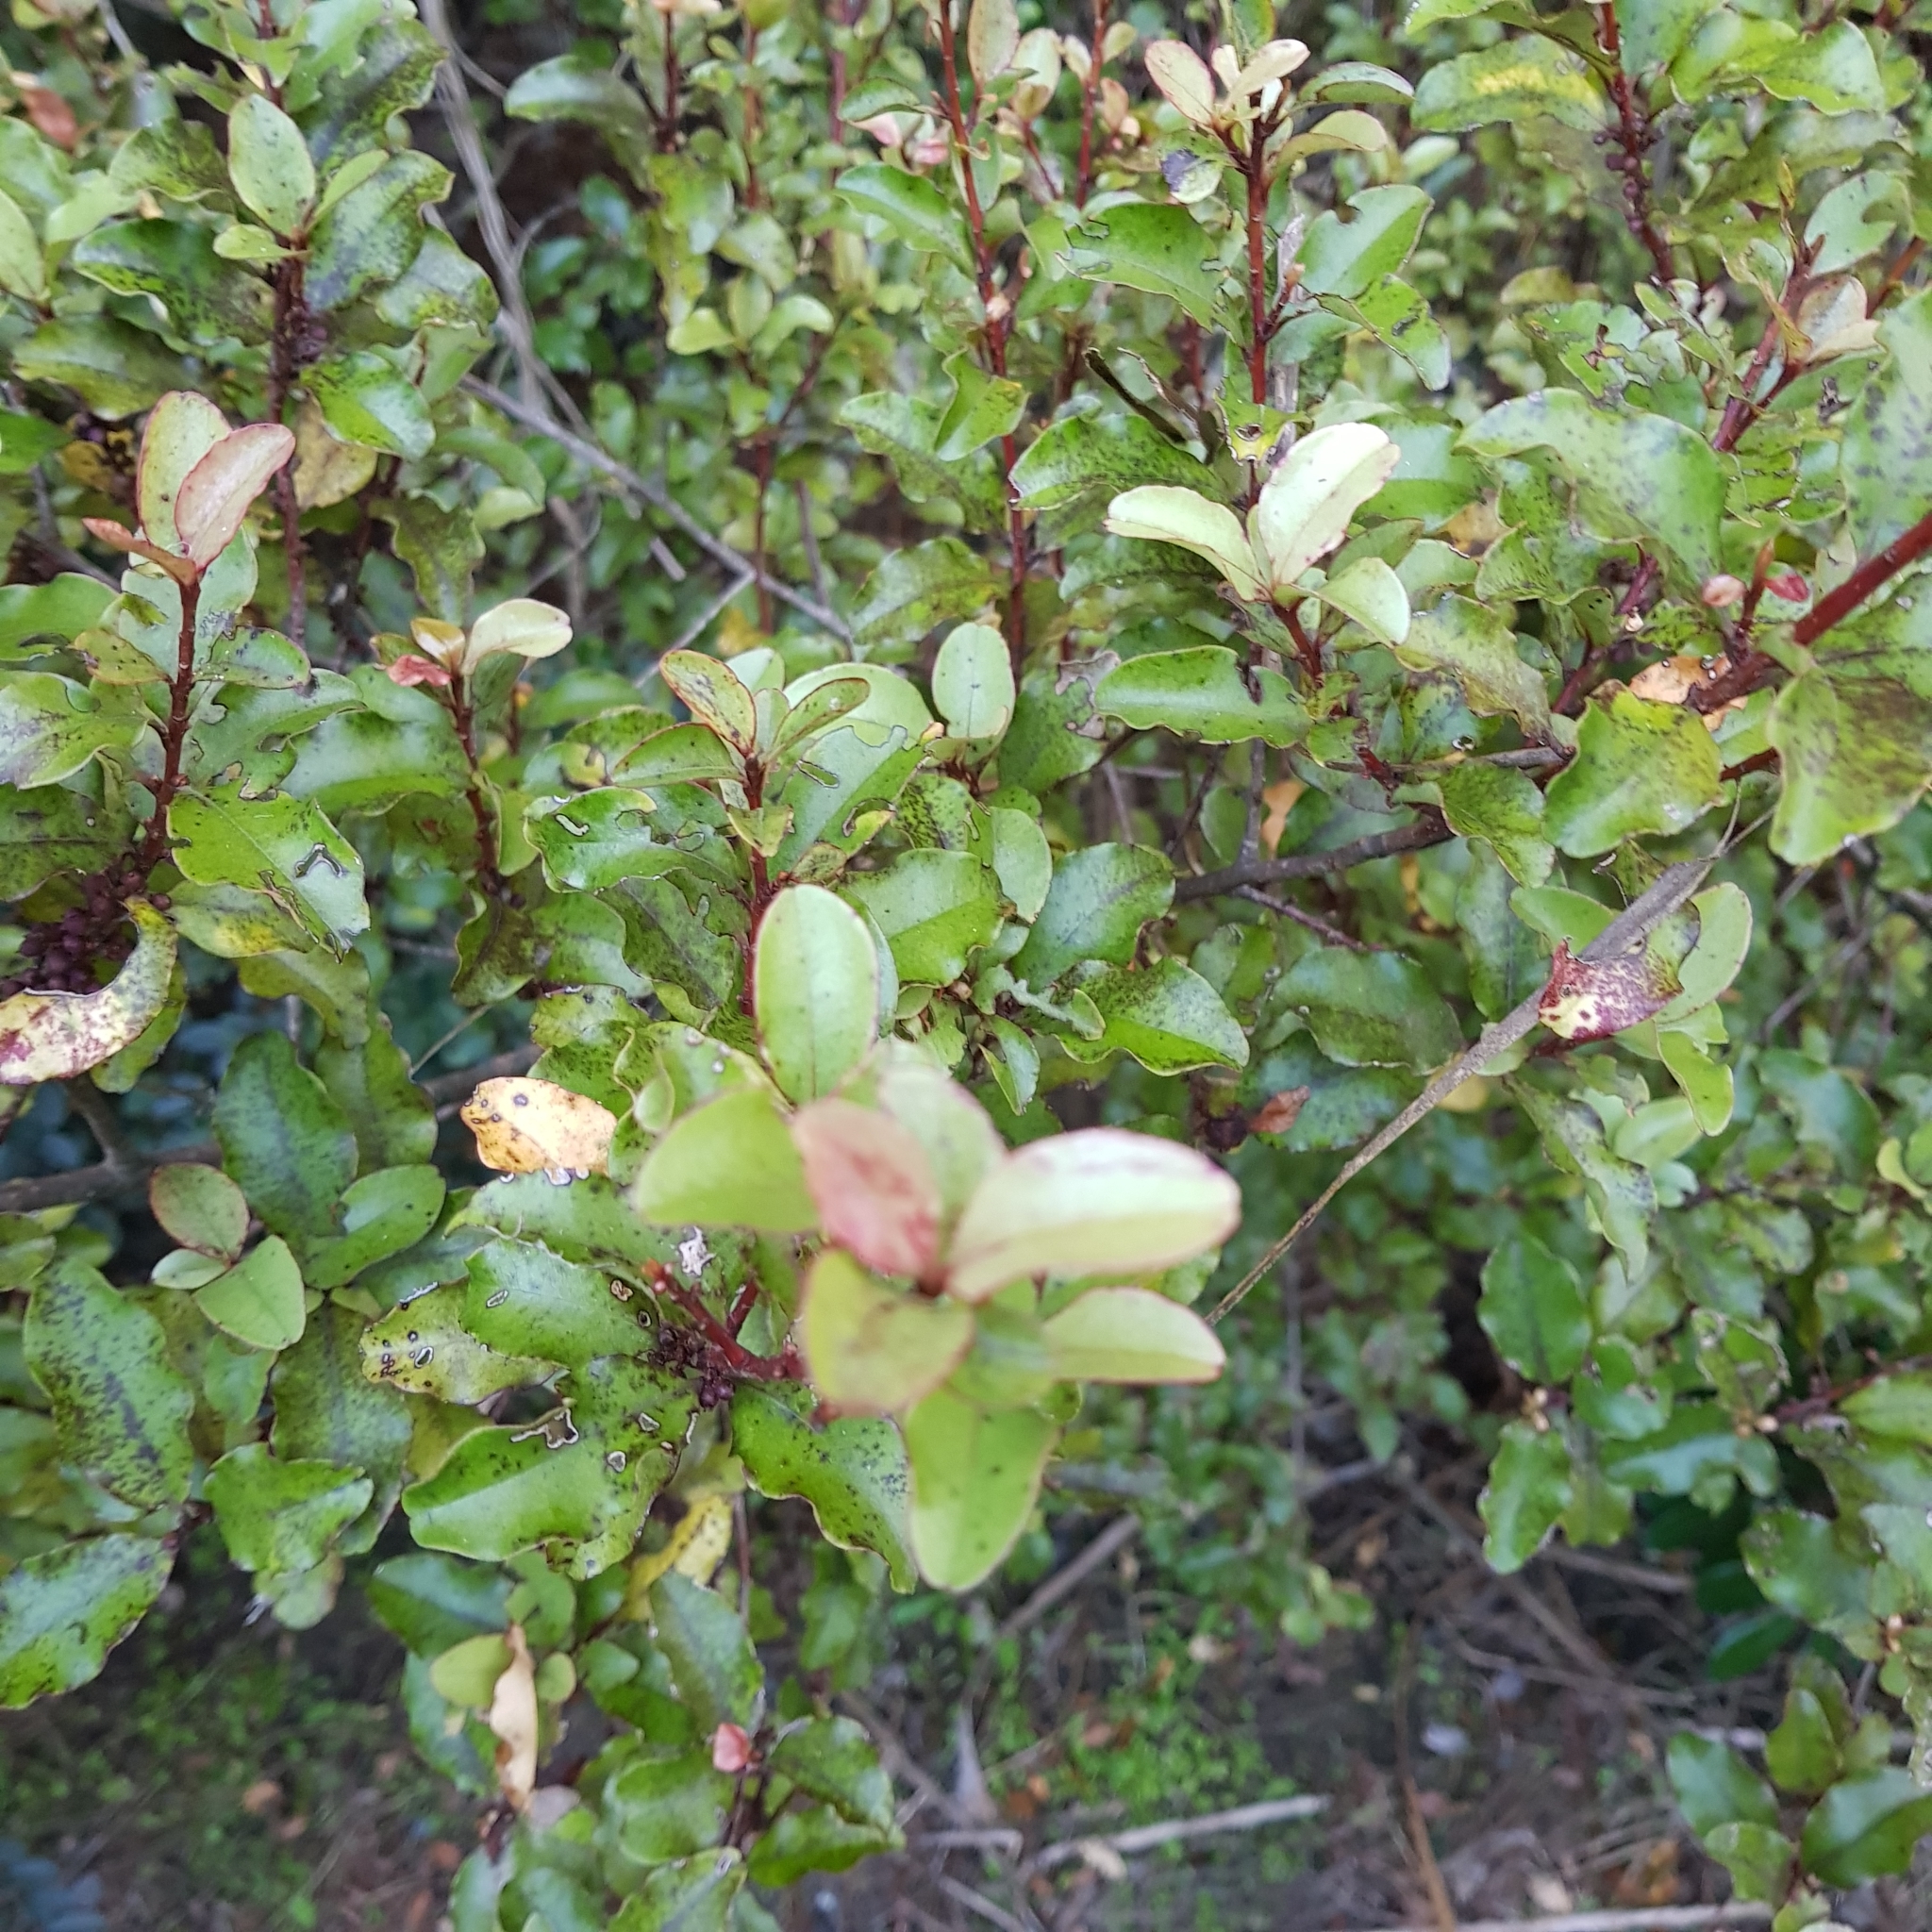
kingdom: Plantae
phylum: Tracheophyta
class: Magnoliopsida
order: Ericales
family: Primulaceae
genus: Myrsine
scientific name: Myrsine australis
